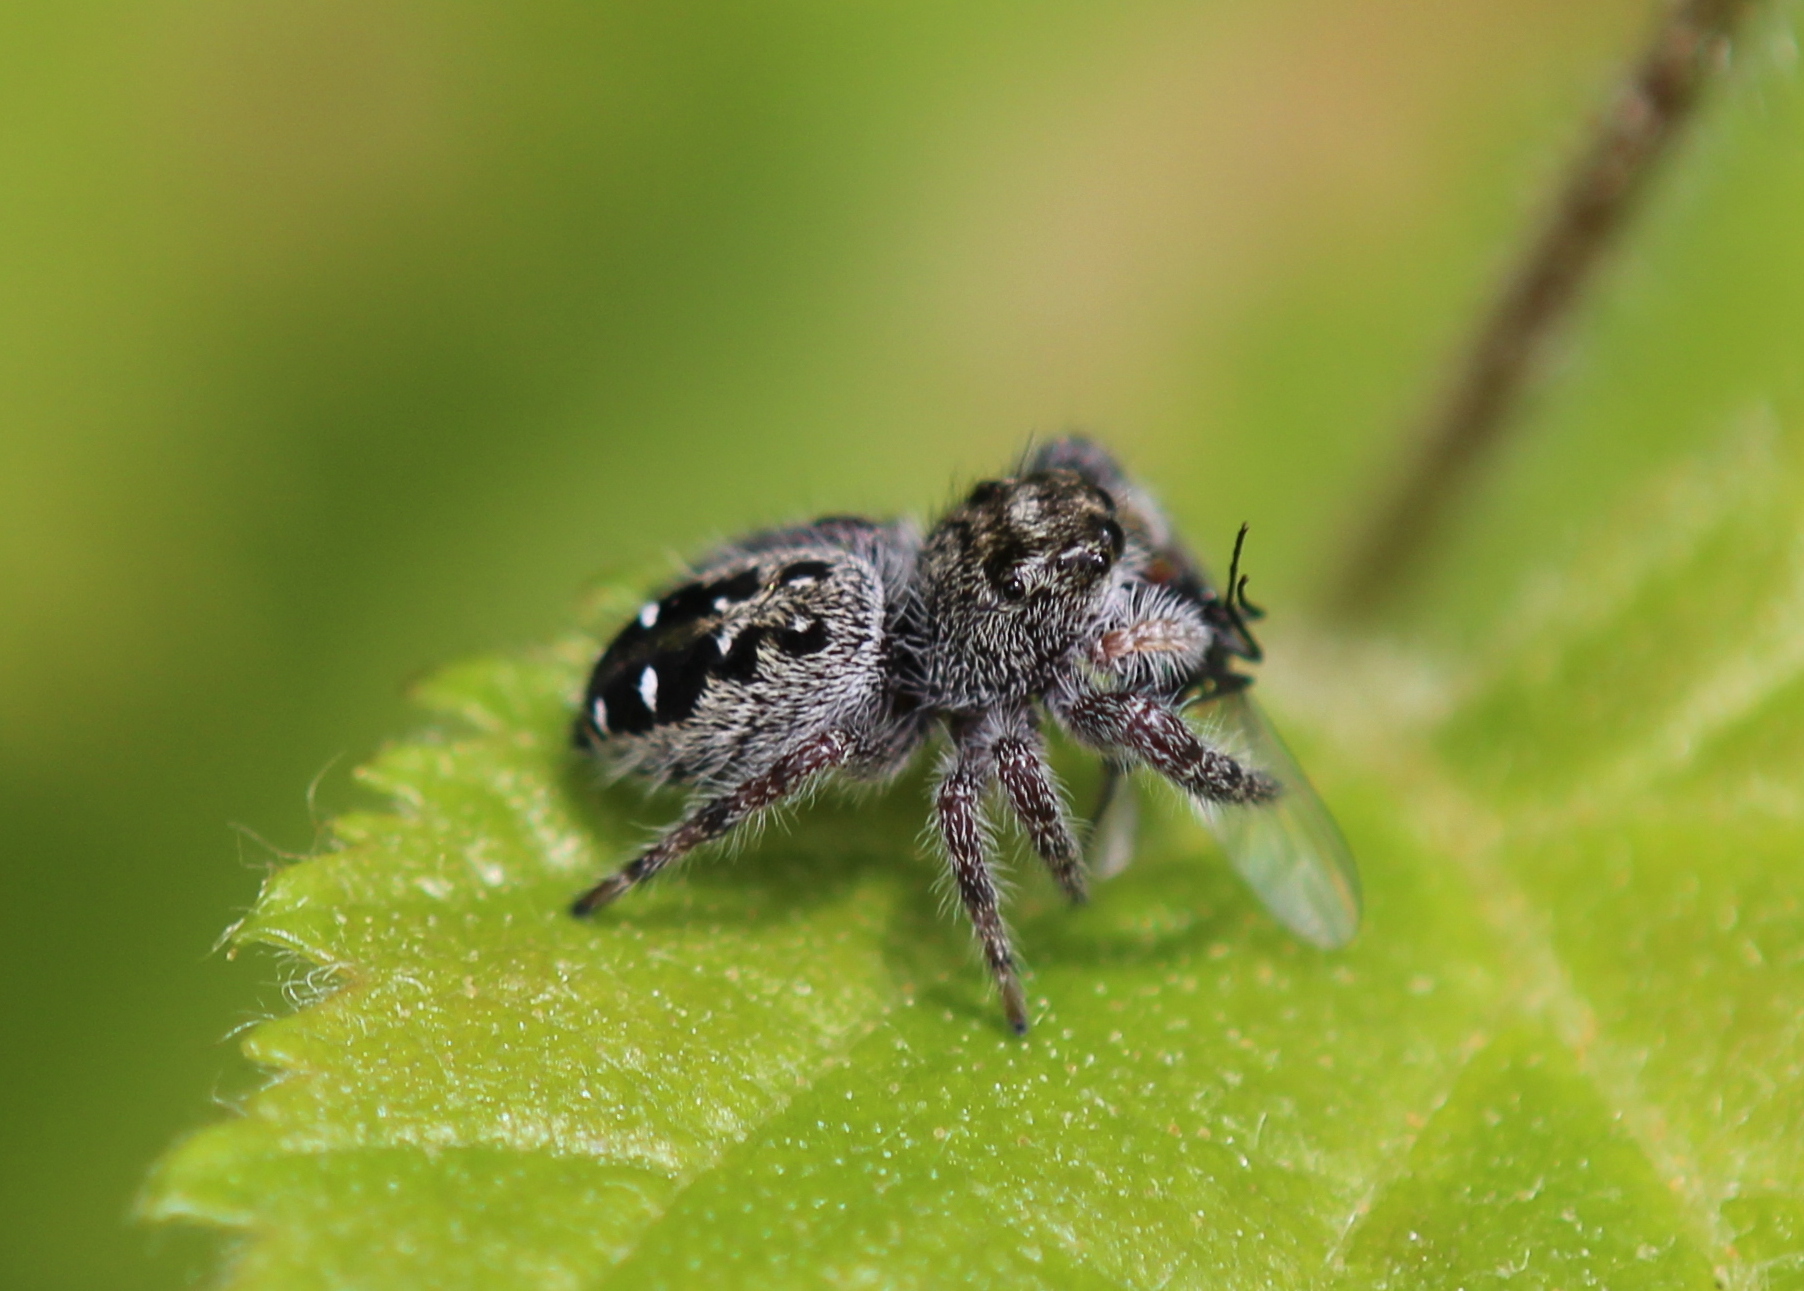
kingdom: Animalia
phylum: Arthropoda
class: Arachnida
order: Araneae
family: Salticidae
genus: Phidippus
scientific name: Phidippus purpuratus
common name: Marbled purple jumping spider
